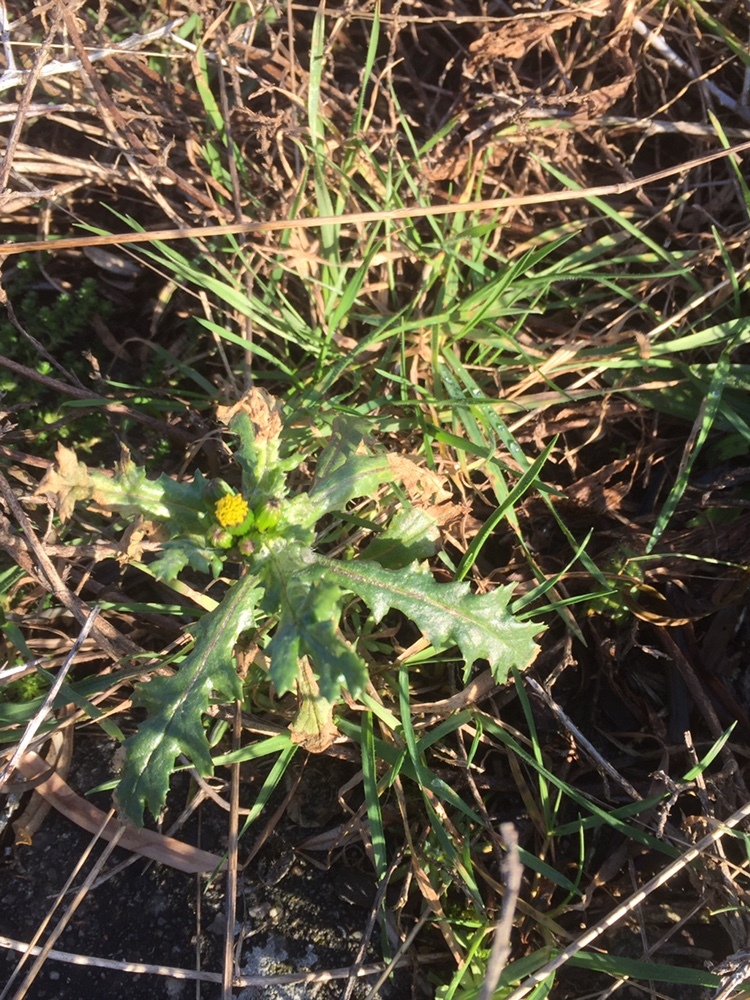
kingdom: Plantae
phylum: Tracheophyta
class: Magnoliopsida
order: Asterales
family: Asteraceae
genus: Senecio
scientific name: Senecio vulgaris
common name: Old-man-in-the-spring
